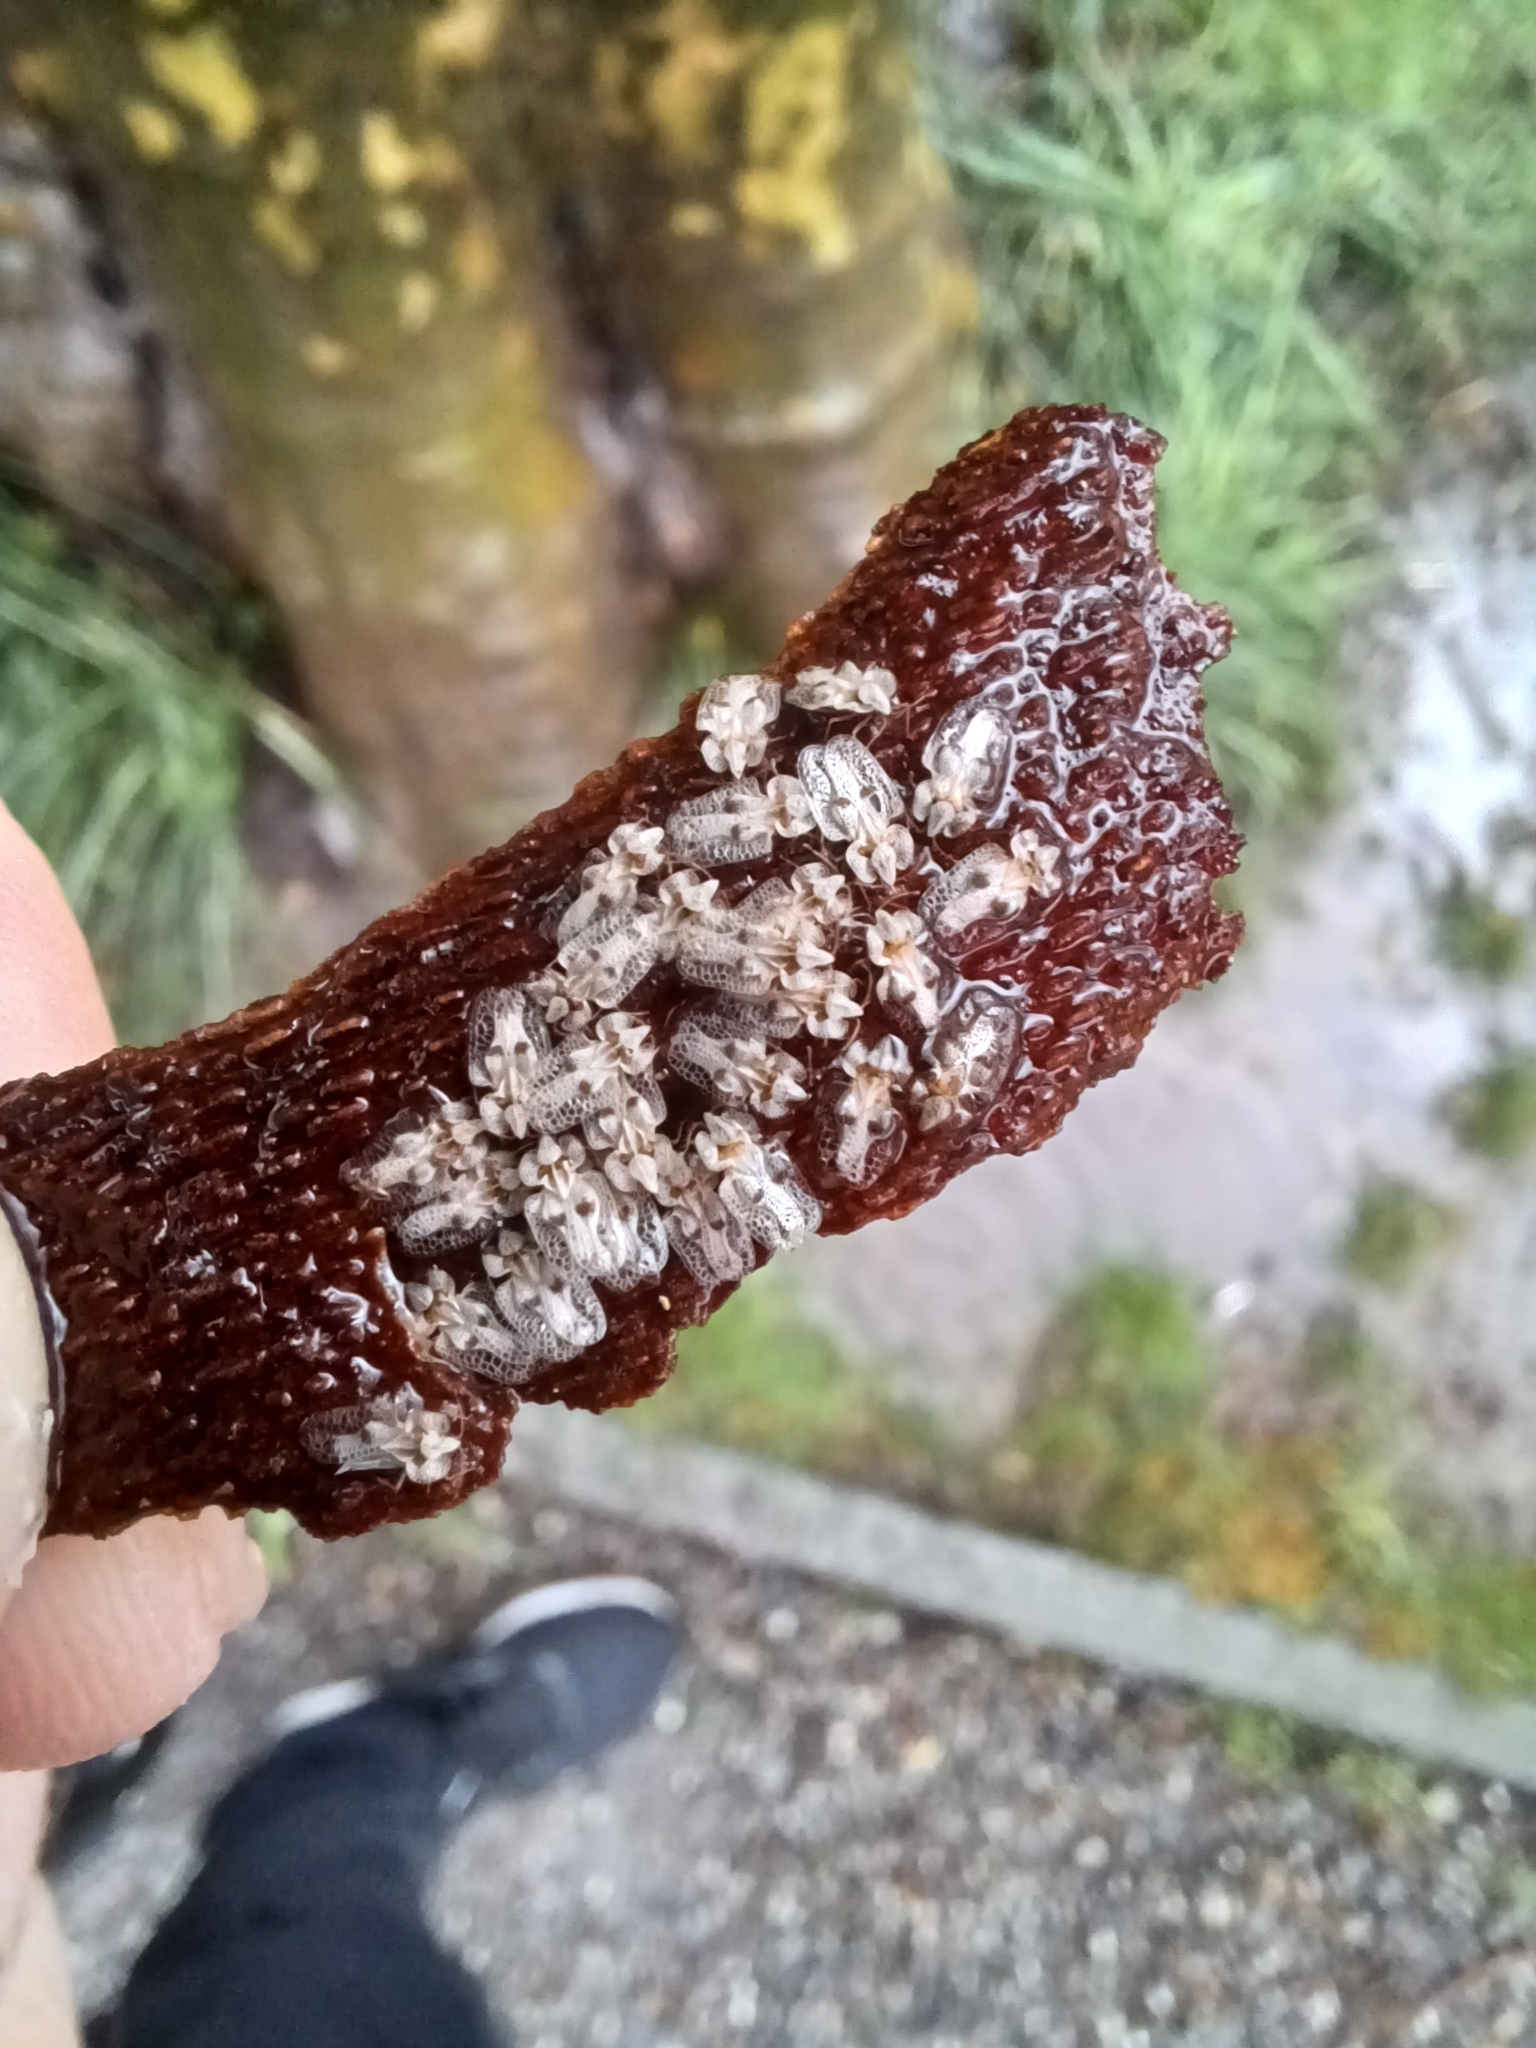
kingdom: Animalia
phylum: Arthropoda
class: Insecta
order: Hemiptera
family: Tingidae
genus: Corythucha
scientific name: Corythucha ciliata
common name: Sycamore lace bug
